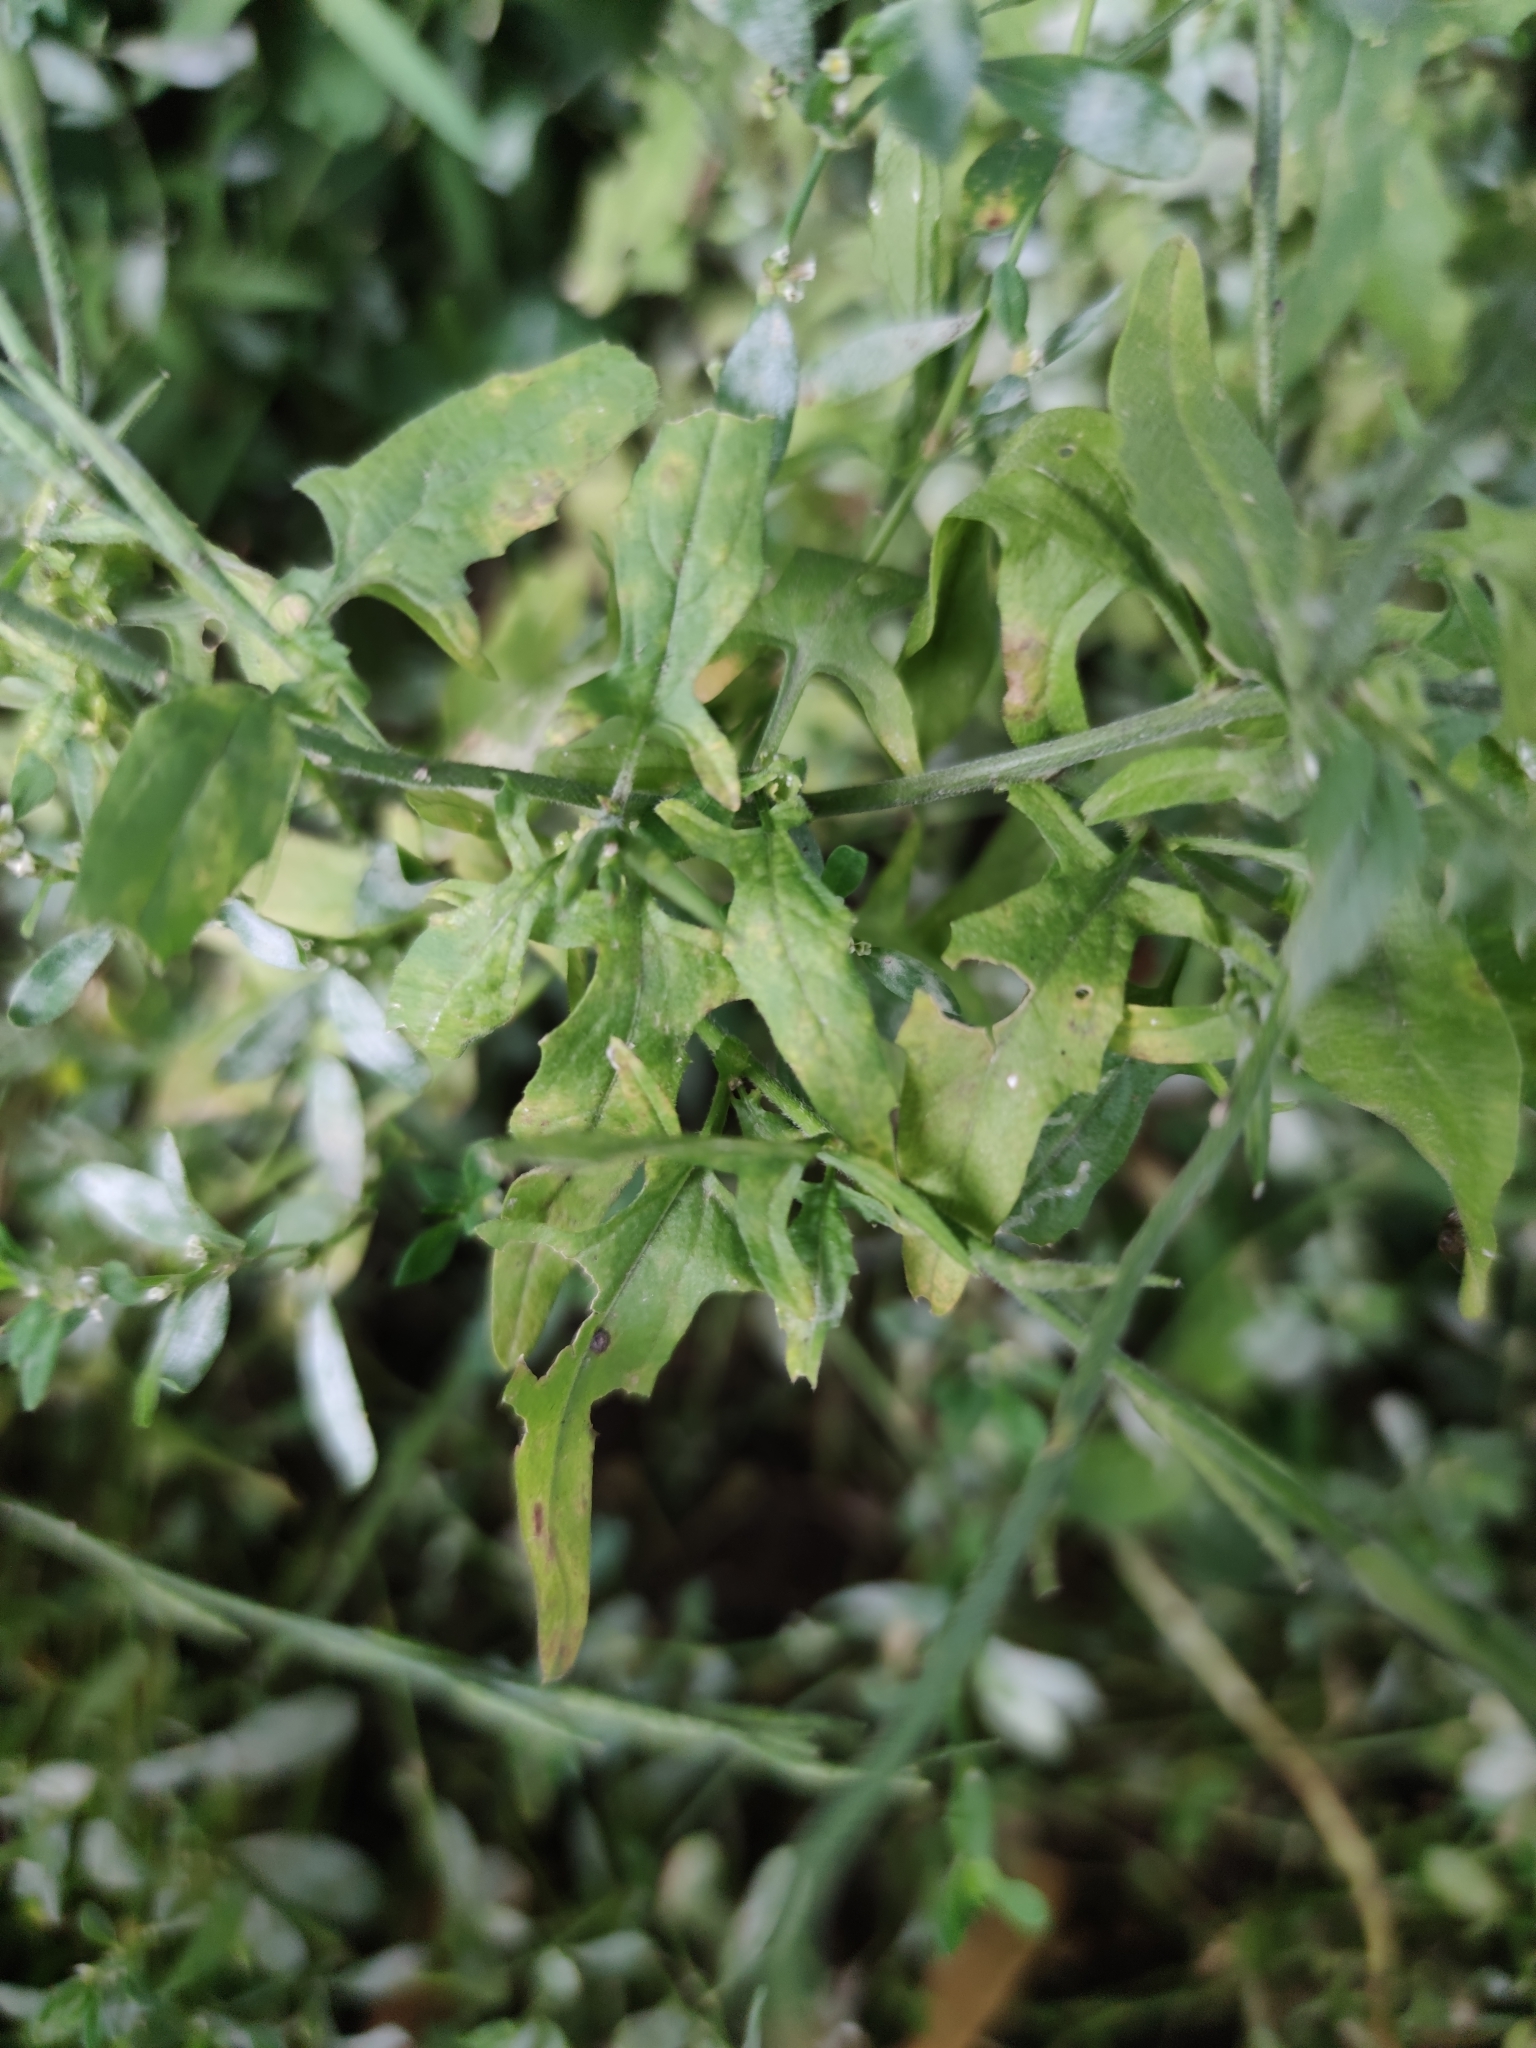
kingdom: Plantae
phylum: Tracheophyta
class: Magnoliopsida
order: Brassicales
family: Brassicaceae
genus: Sisymbrium
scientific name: Sisymbrium officinale
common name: Hedge mustard
